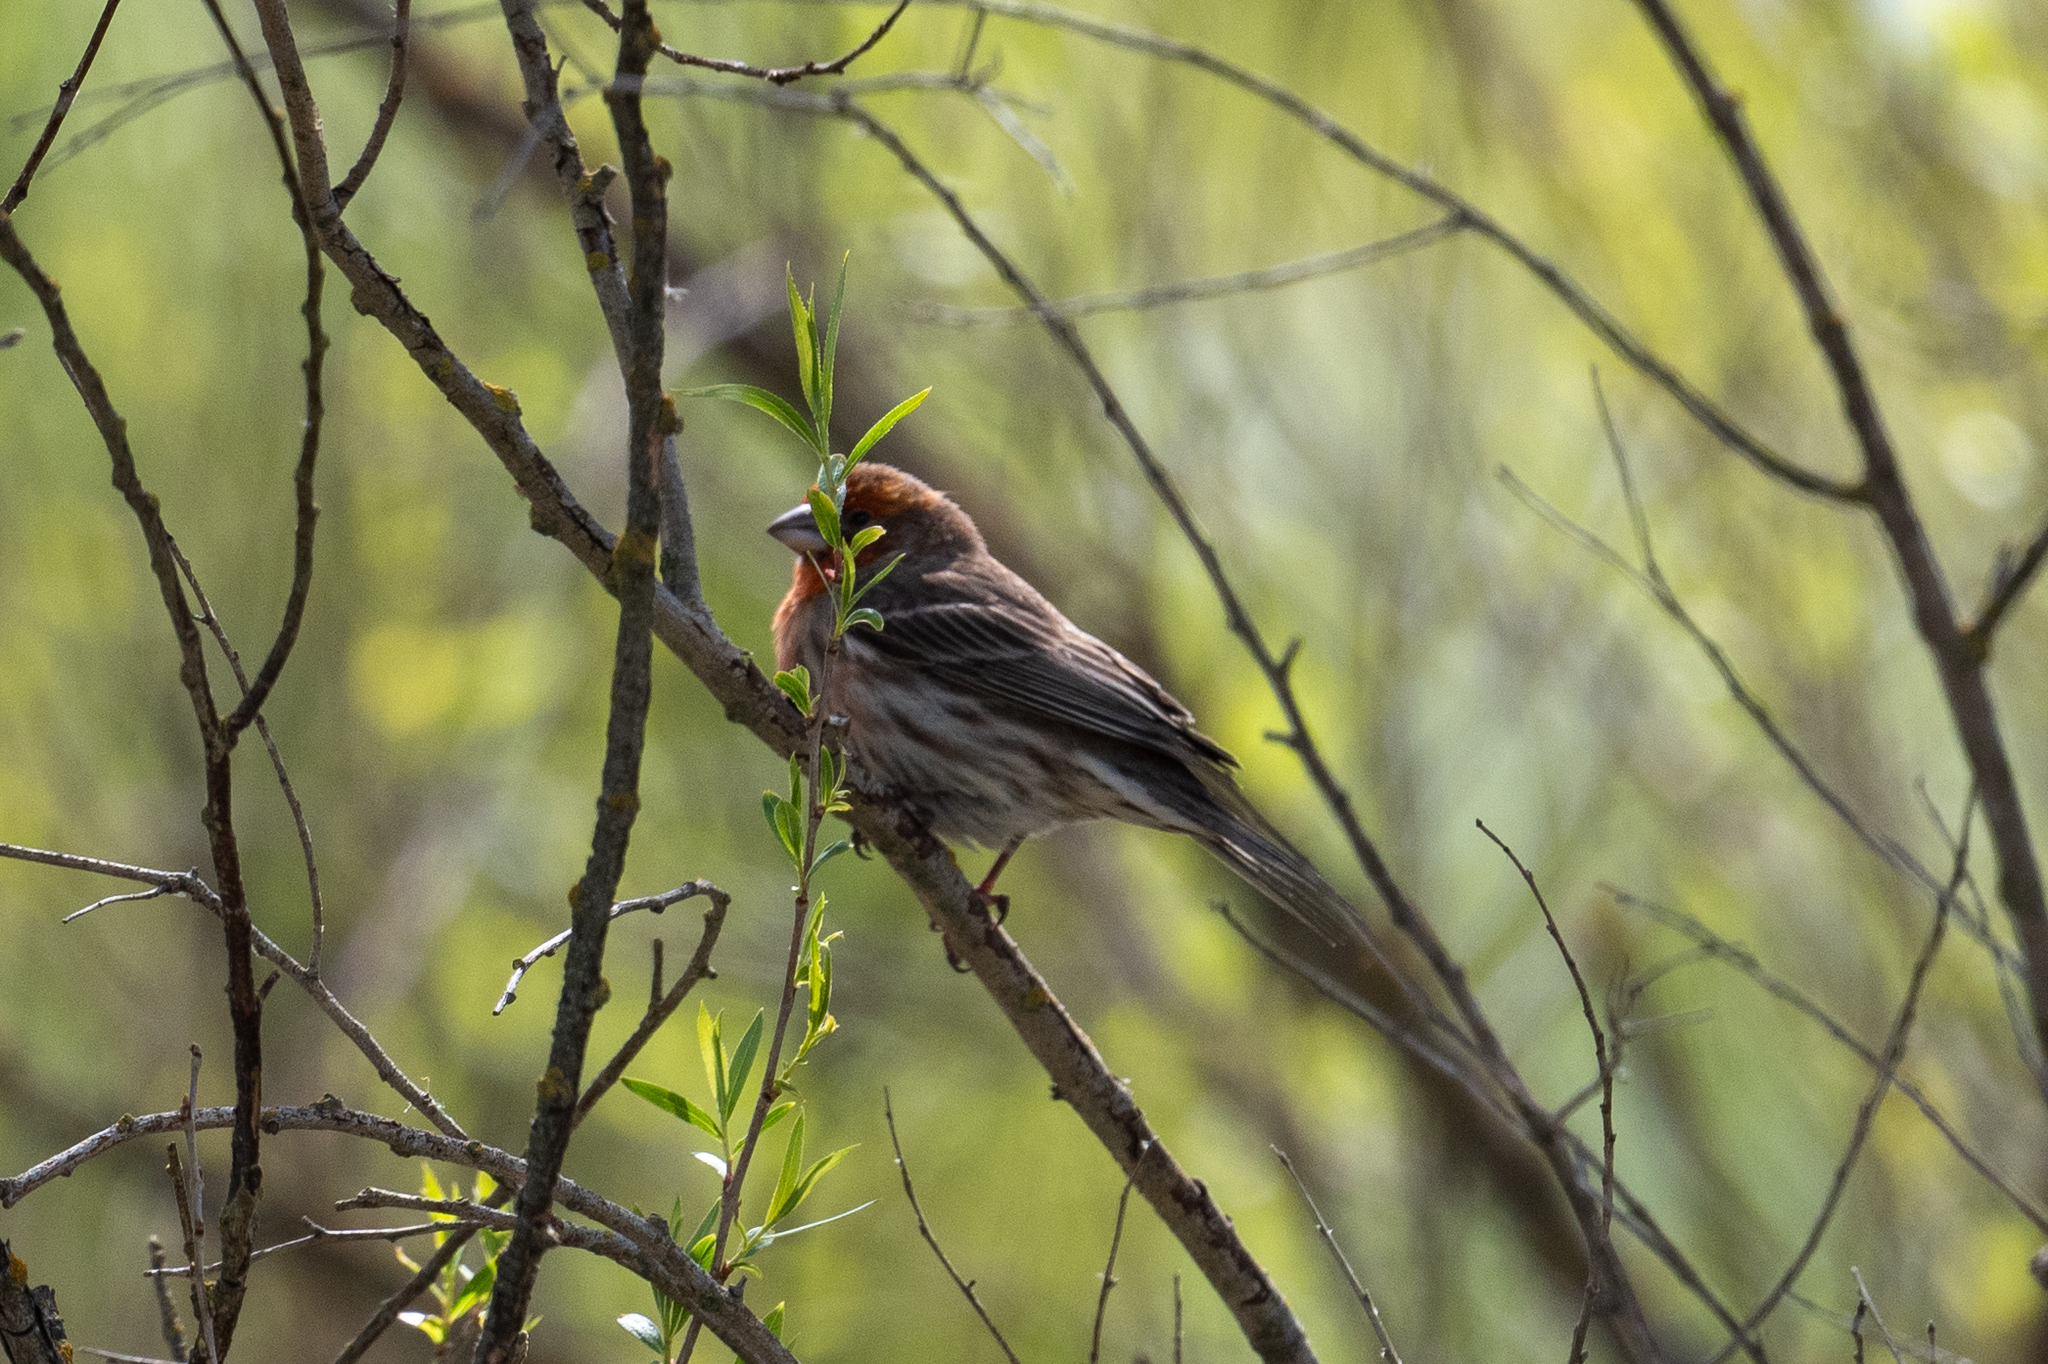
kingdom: Animalia
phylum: Chordata
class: Aves
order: Passeriformes
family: Fringillidae
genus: Haemorhous
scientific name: Haemorhous mexicanus
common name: House finch
